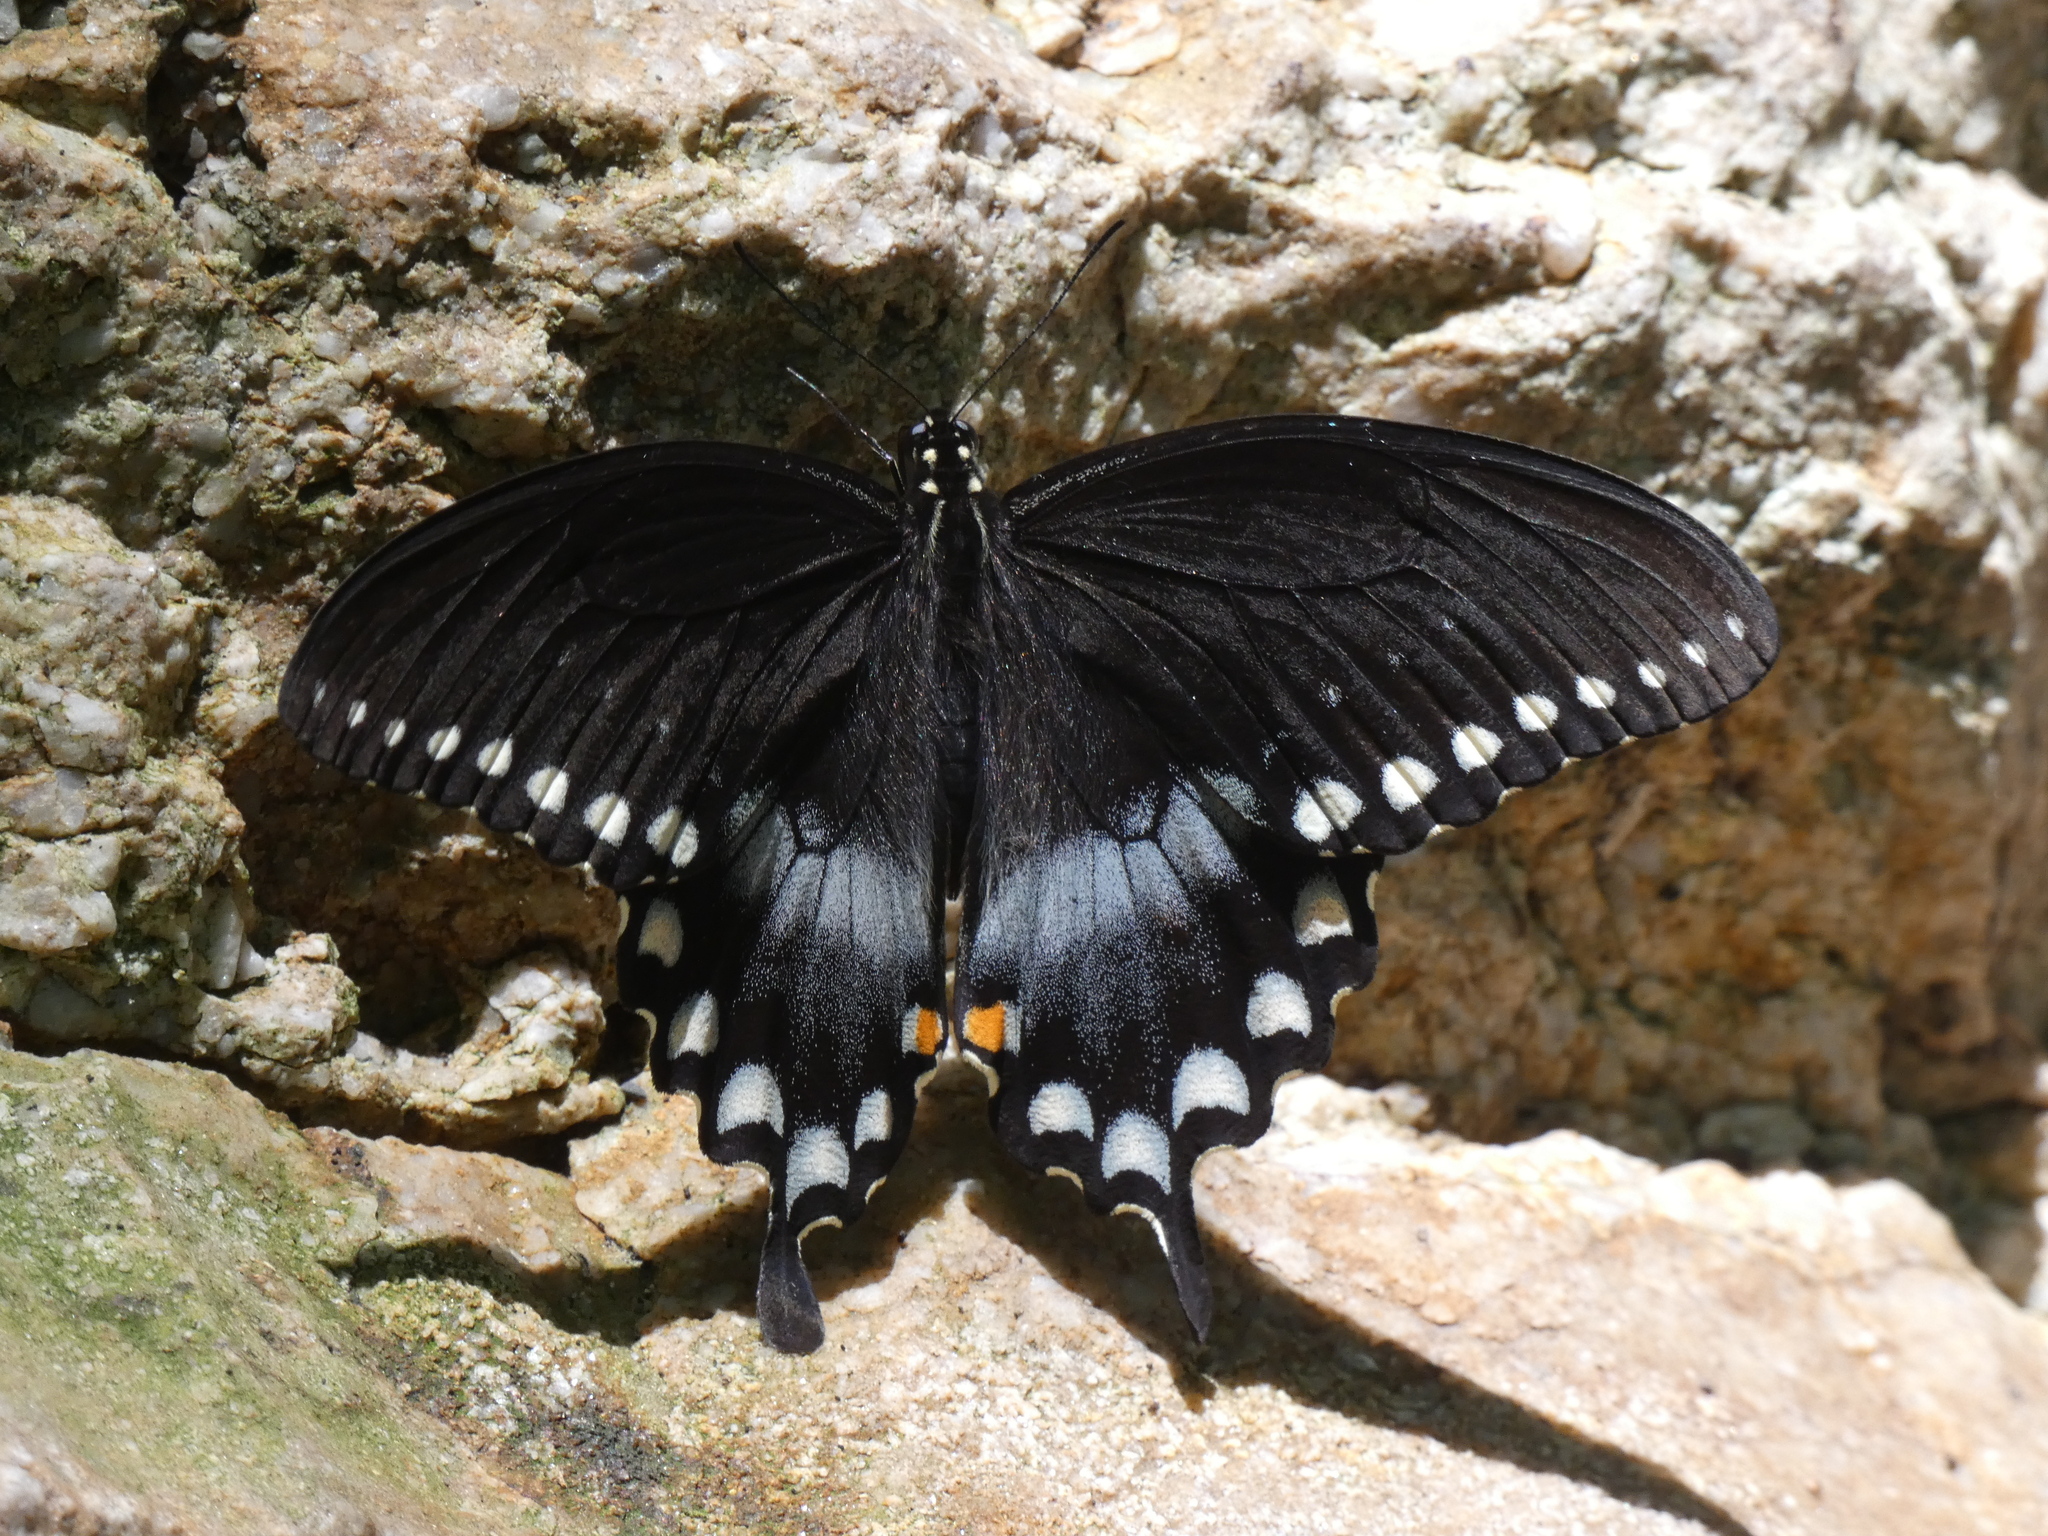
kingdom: Animalia
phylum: Arthropoda
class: Insecta
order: Lepidoptera
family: Papilionidae
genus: Papilio
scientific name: Papilio troilus
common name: Spicebush swallowtail
